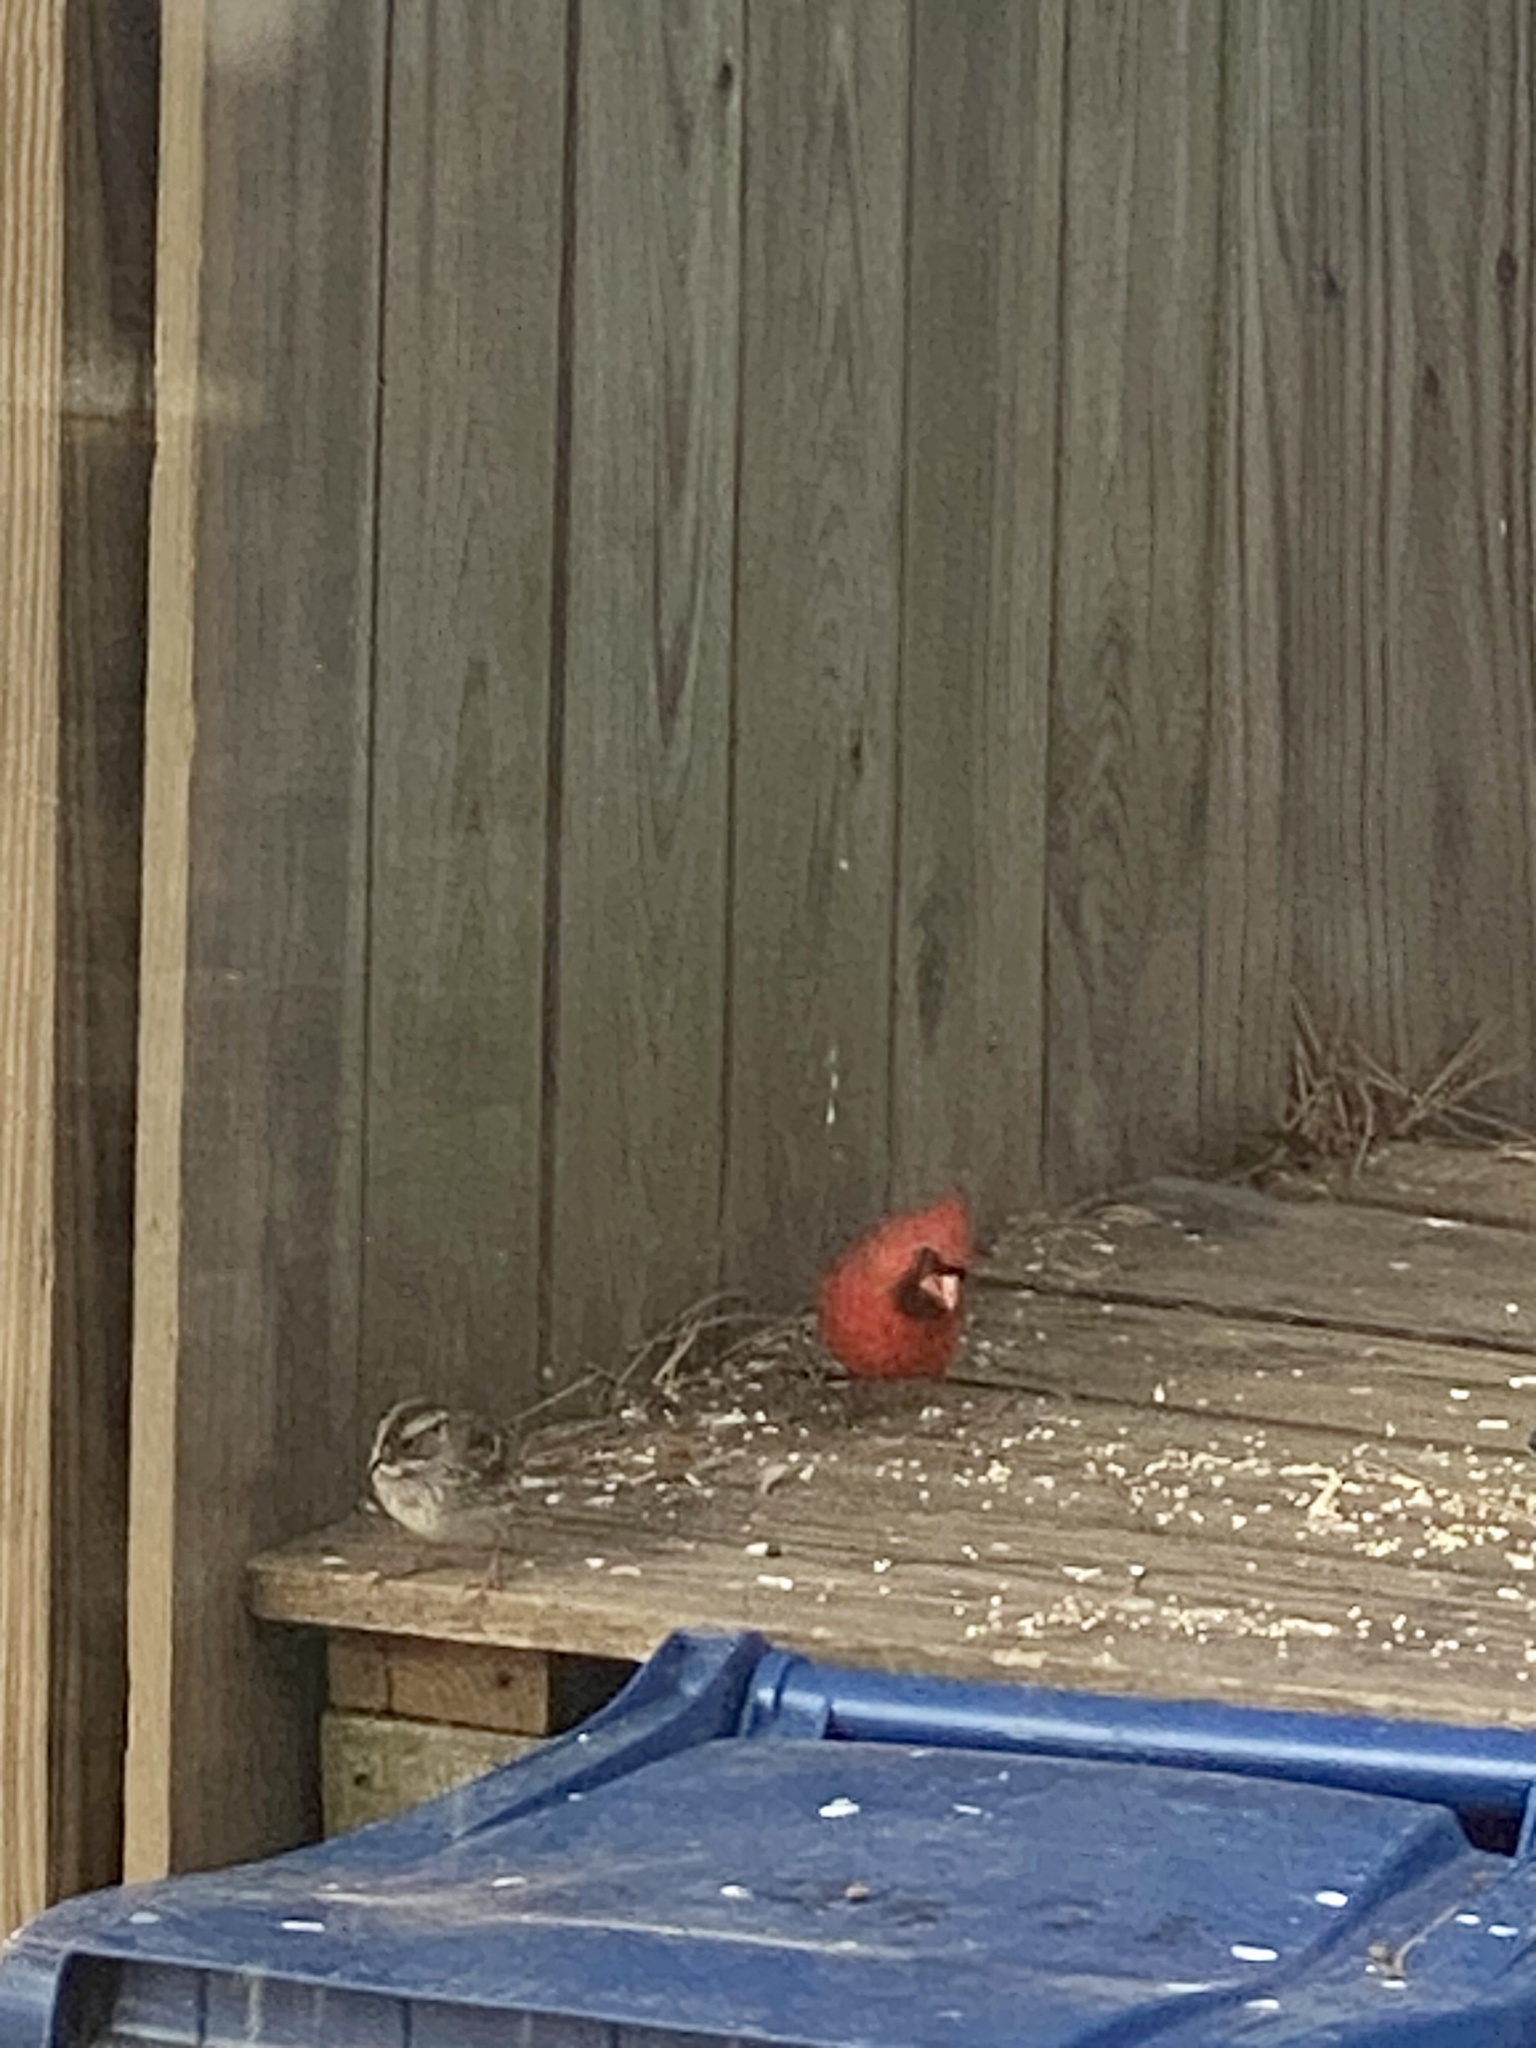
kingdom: Animalia
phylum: Chordata
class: Aves
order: Passeriformes
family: Cardinalidae
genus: Cardinalis
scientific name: Cardinalis cardinalis
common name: Northern cardinal
